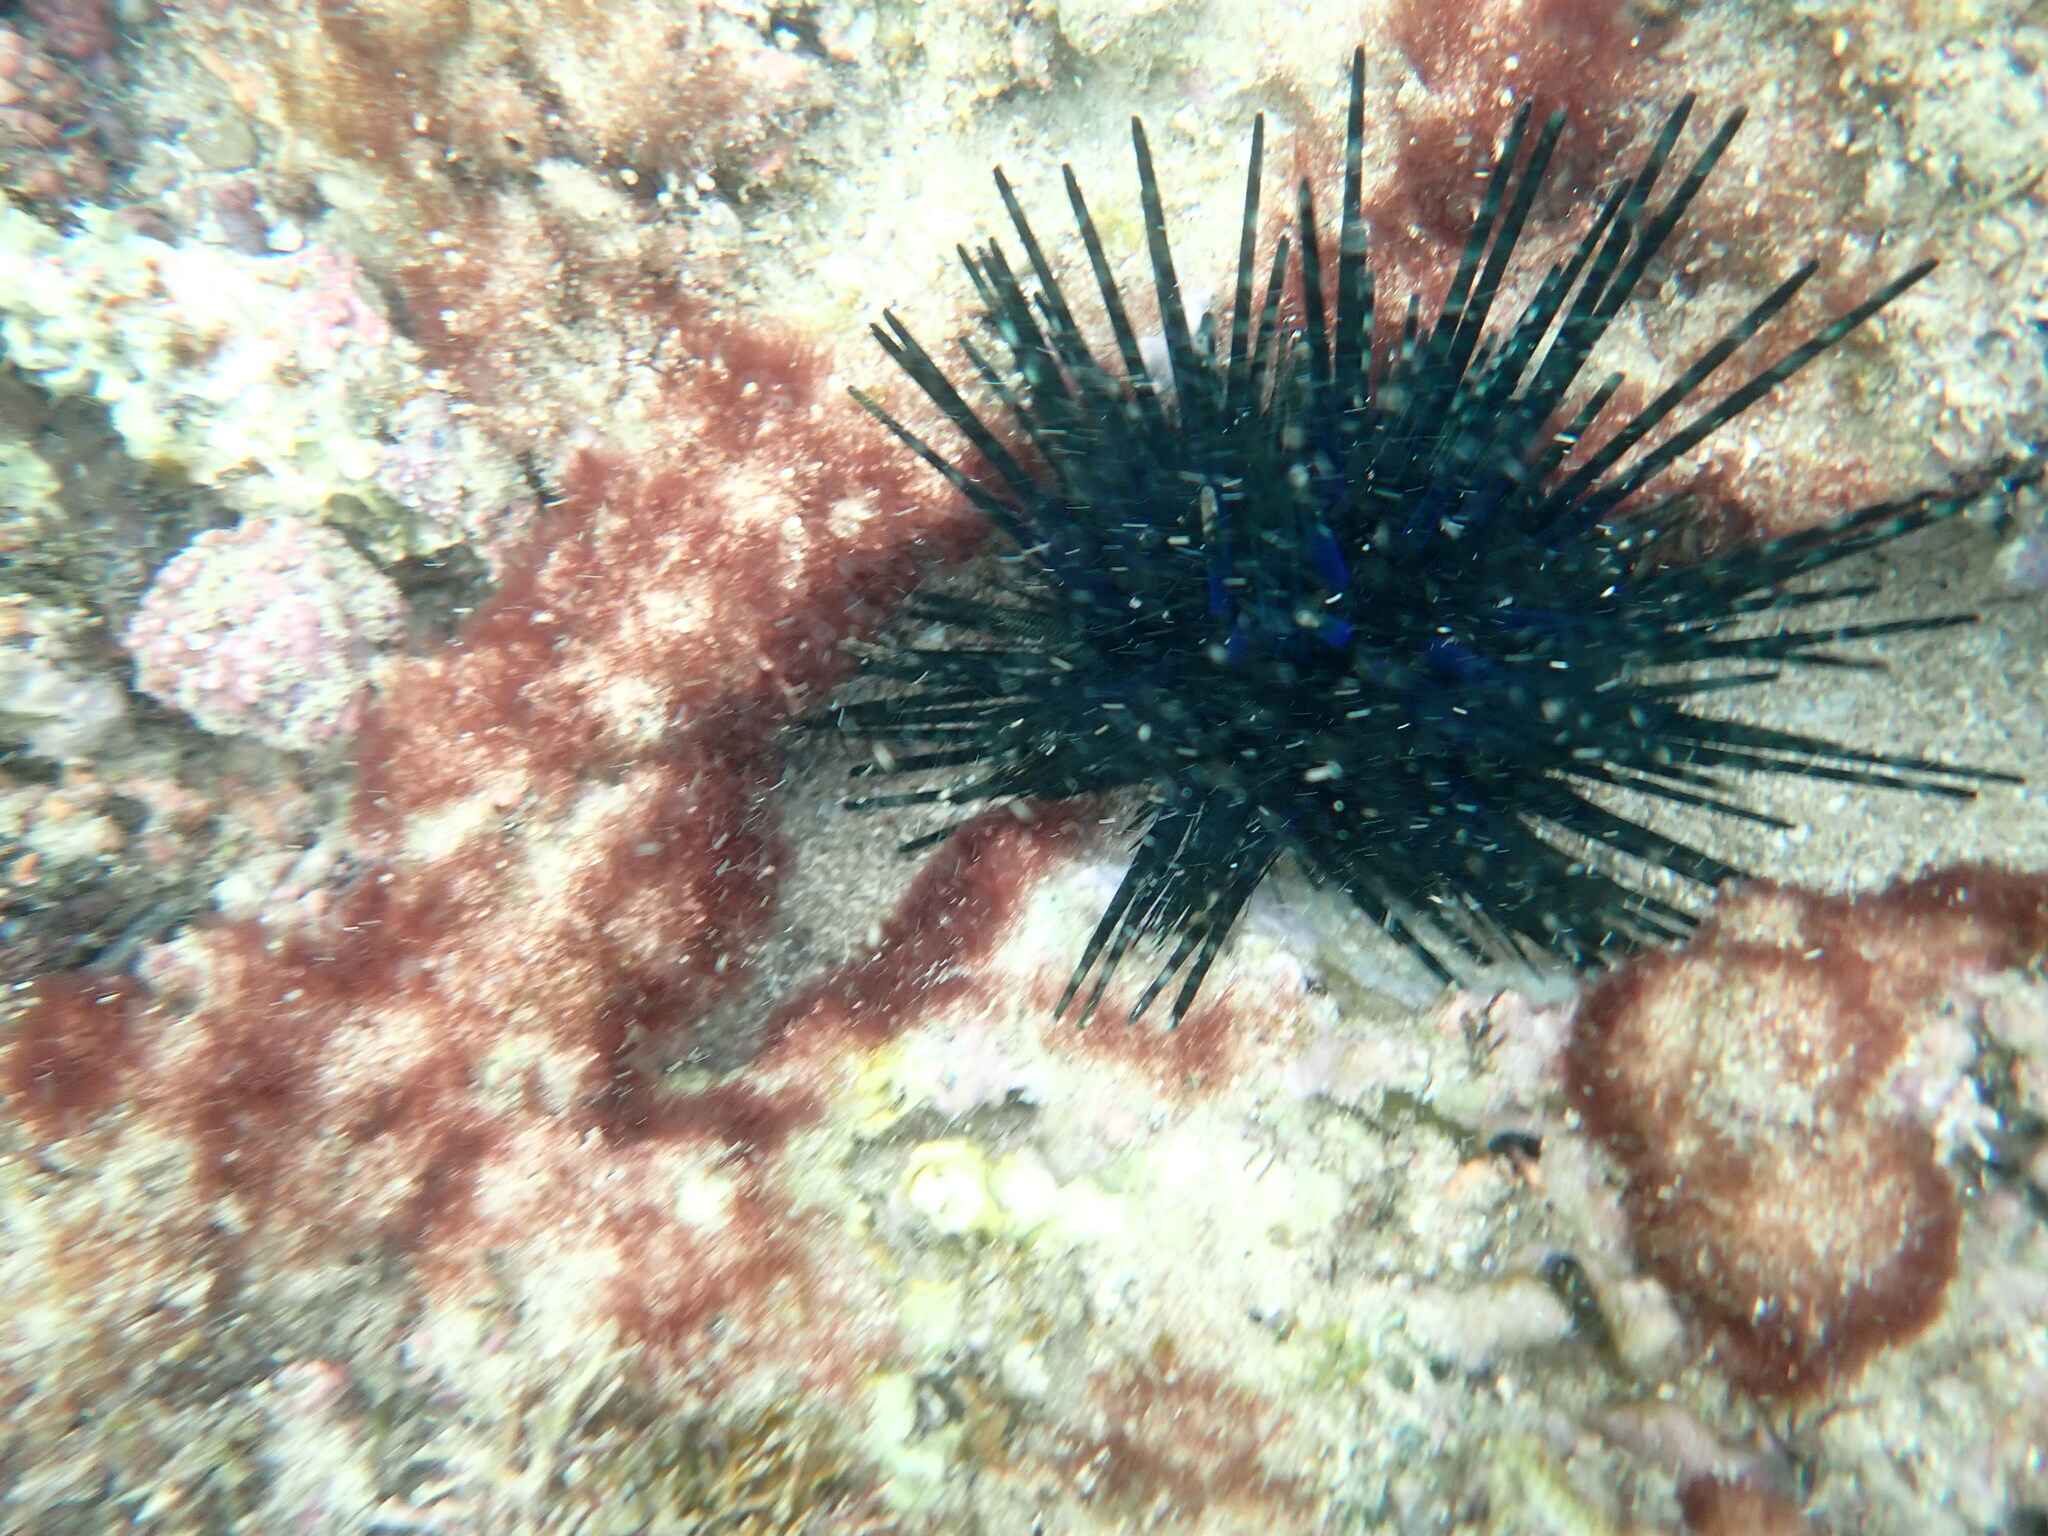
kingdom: Animalia
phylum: Echinodermata
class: Echinoidea
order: Diadematoida
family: Diadematidae
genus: Echinothrix
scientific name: Echinothrix diadema
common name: Schwarzer diademseeigel
